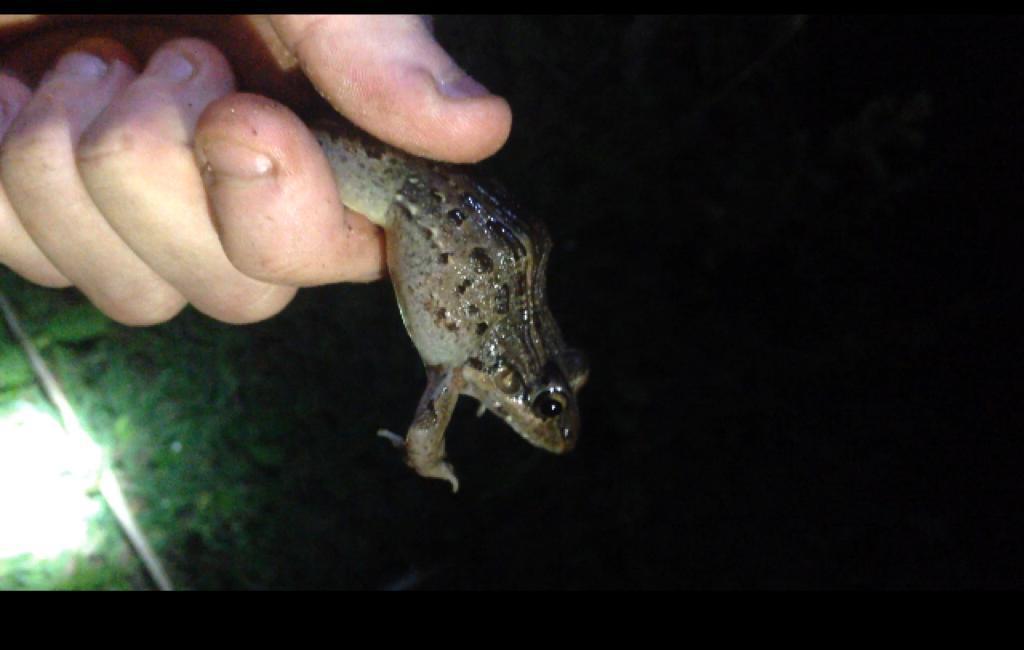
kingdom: Animalia
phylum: Chordata
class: Amphibia
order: Anura
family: Leptodactylidae
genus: Leptodactylus
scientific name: Leptodactylus macrosternum
